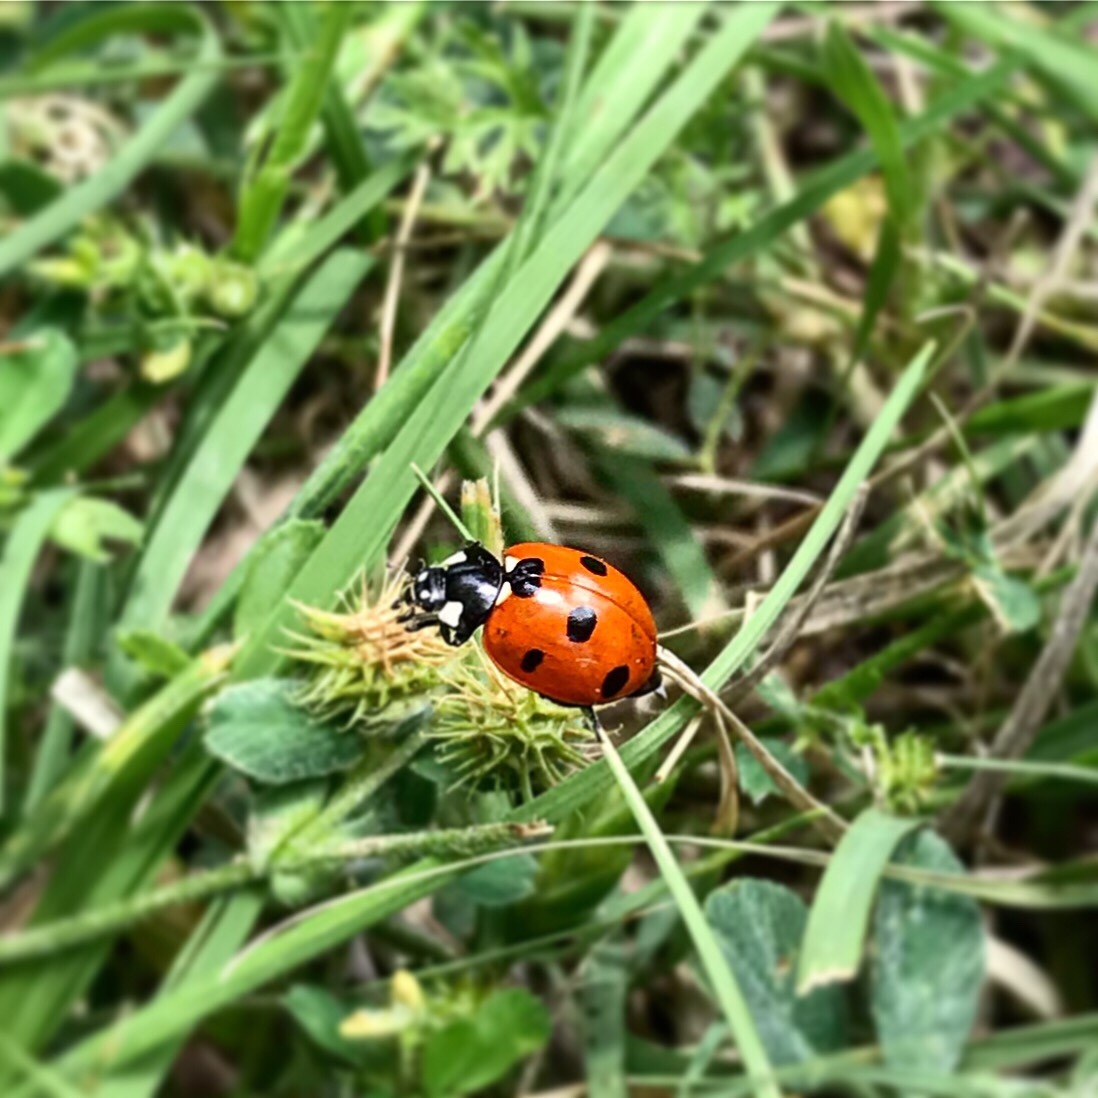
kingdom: Animalia
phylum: Arthropoda
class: Insecta
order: Coleoptera
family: Coccinellidae
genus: Coccinella
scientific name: Coccinella septempunctata
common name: Sevenspotted lady beetle
